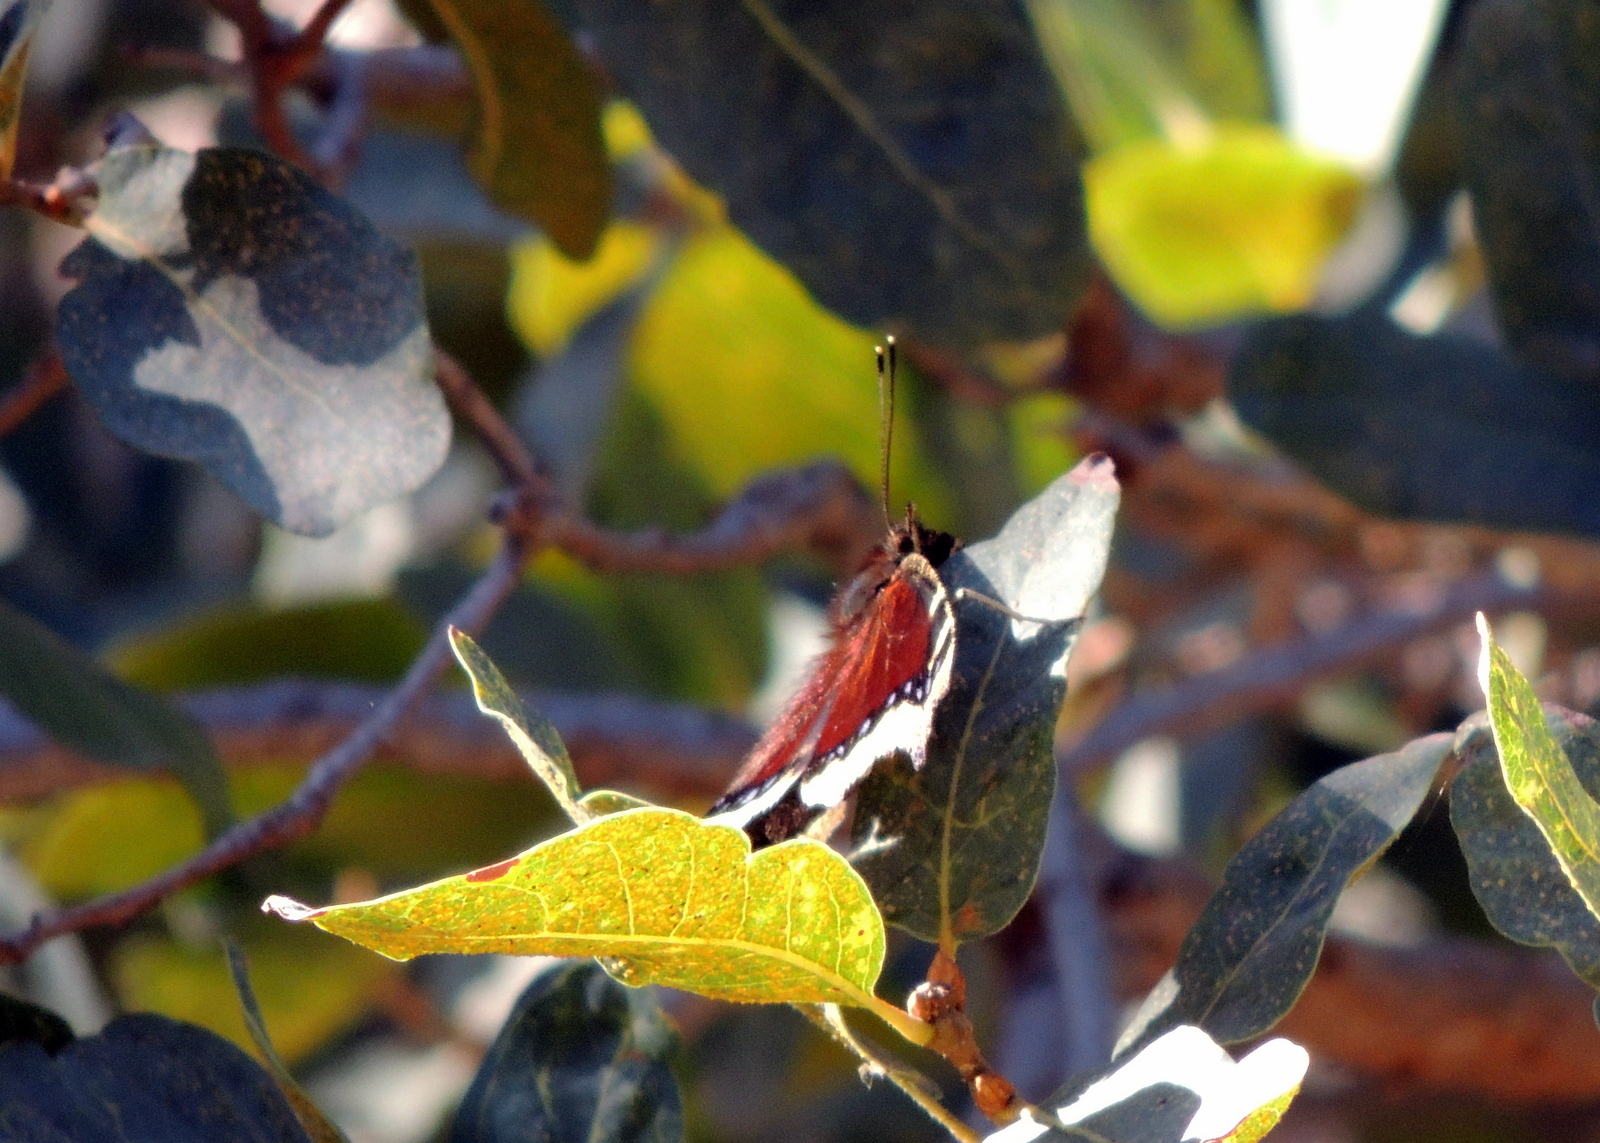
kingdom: Animalia
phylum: Arthropoda
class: Insecta
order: Lepidoptera
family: Nymphalidae
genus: Nymphalis
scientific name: Nymphalis antiopa
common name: Camberwell beauty
